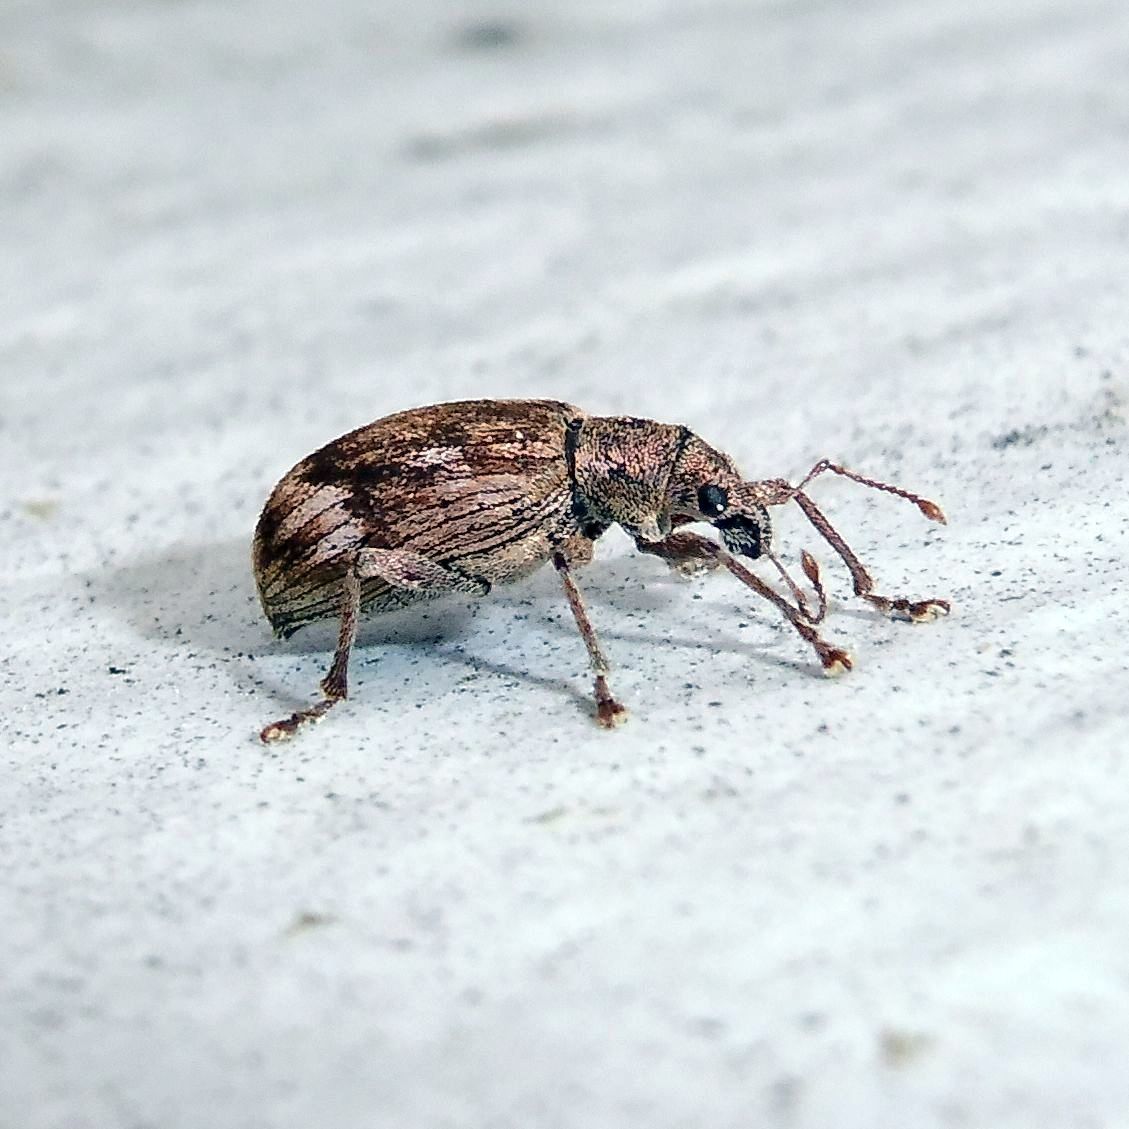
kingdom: Animalia
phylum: Arthropoda
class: Insecta
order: Coleoptera
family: Curculionidae
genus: Polydrusus
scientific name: Polydrusus tereticollis
